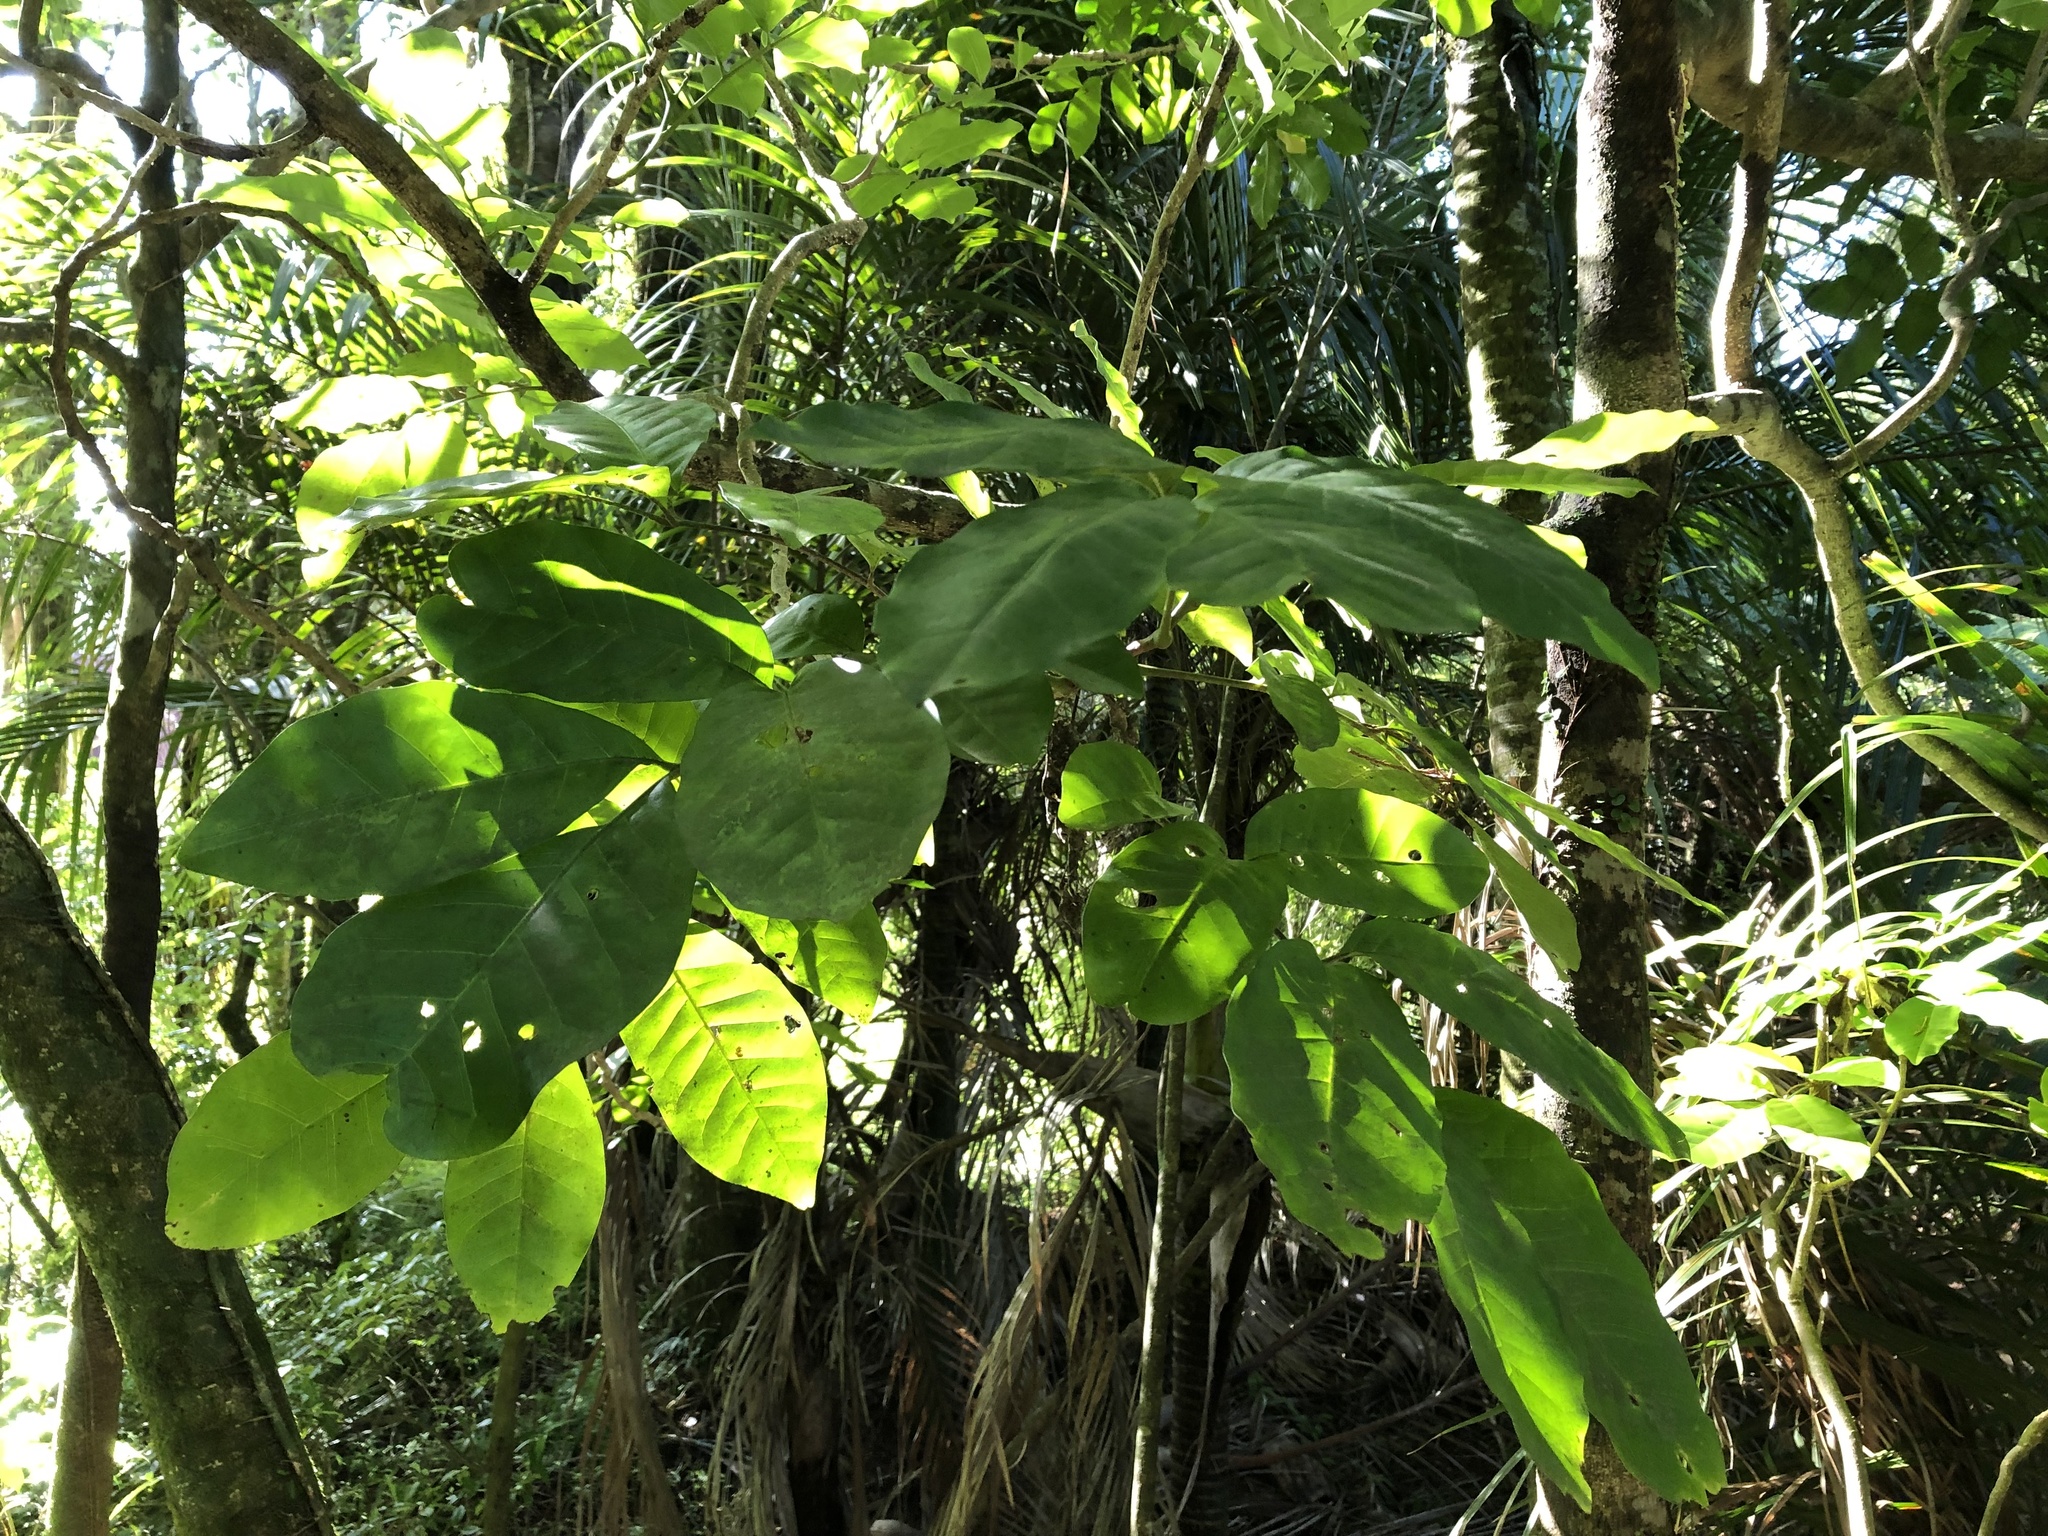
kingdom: Plantae
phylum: Tracheophyta
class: Magnoliopsida
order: Sapindales
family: Meliaceae
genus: Didymocheton
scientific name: Didymocheton spectabilis
